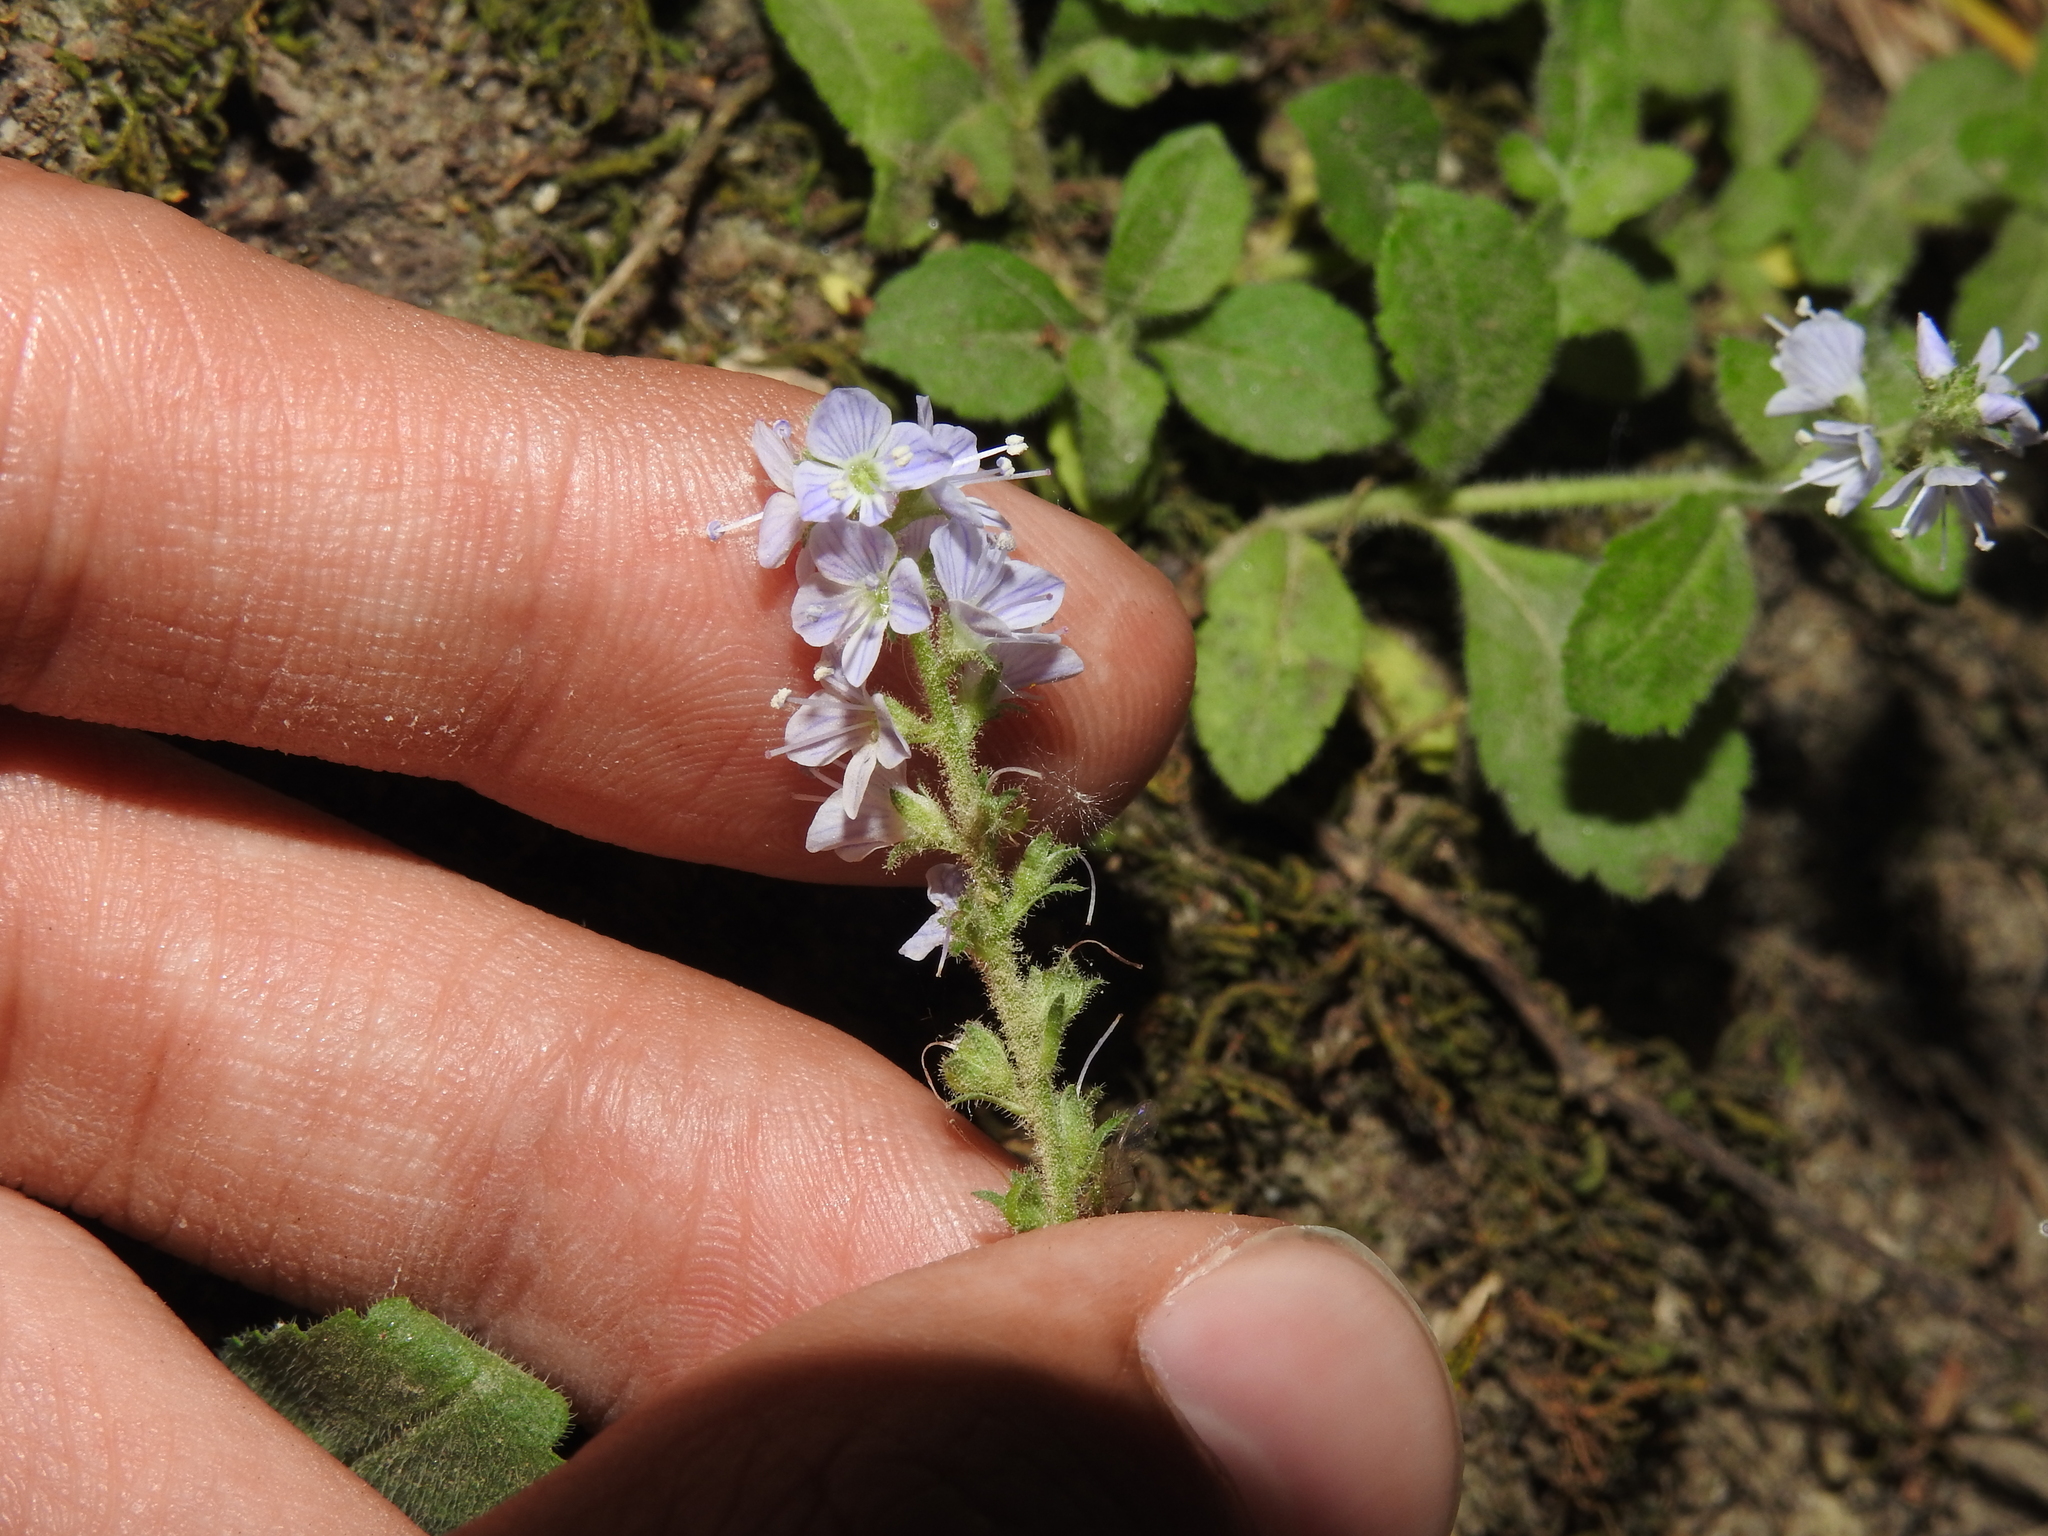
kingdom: Plantae
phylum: Tracheophyta
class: Magnoliopsida
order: Lamiales
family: Plantaginaceae
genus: Veronica
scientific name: Veronica officinalis
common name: Common speedwell
